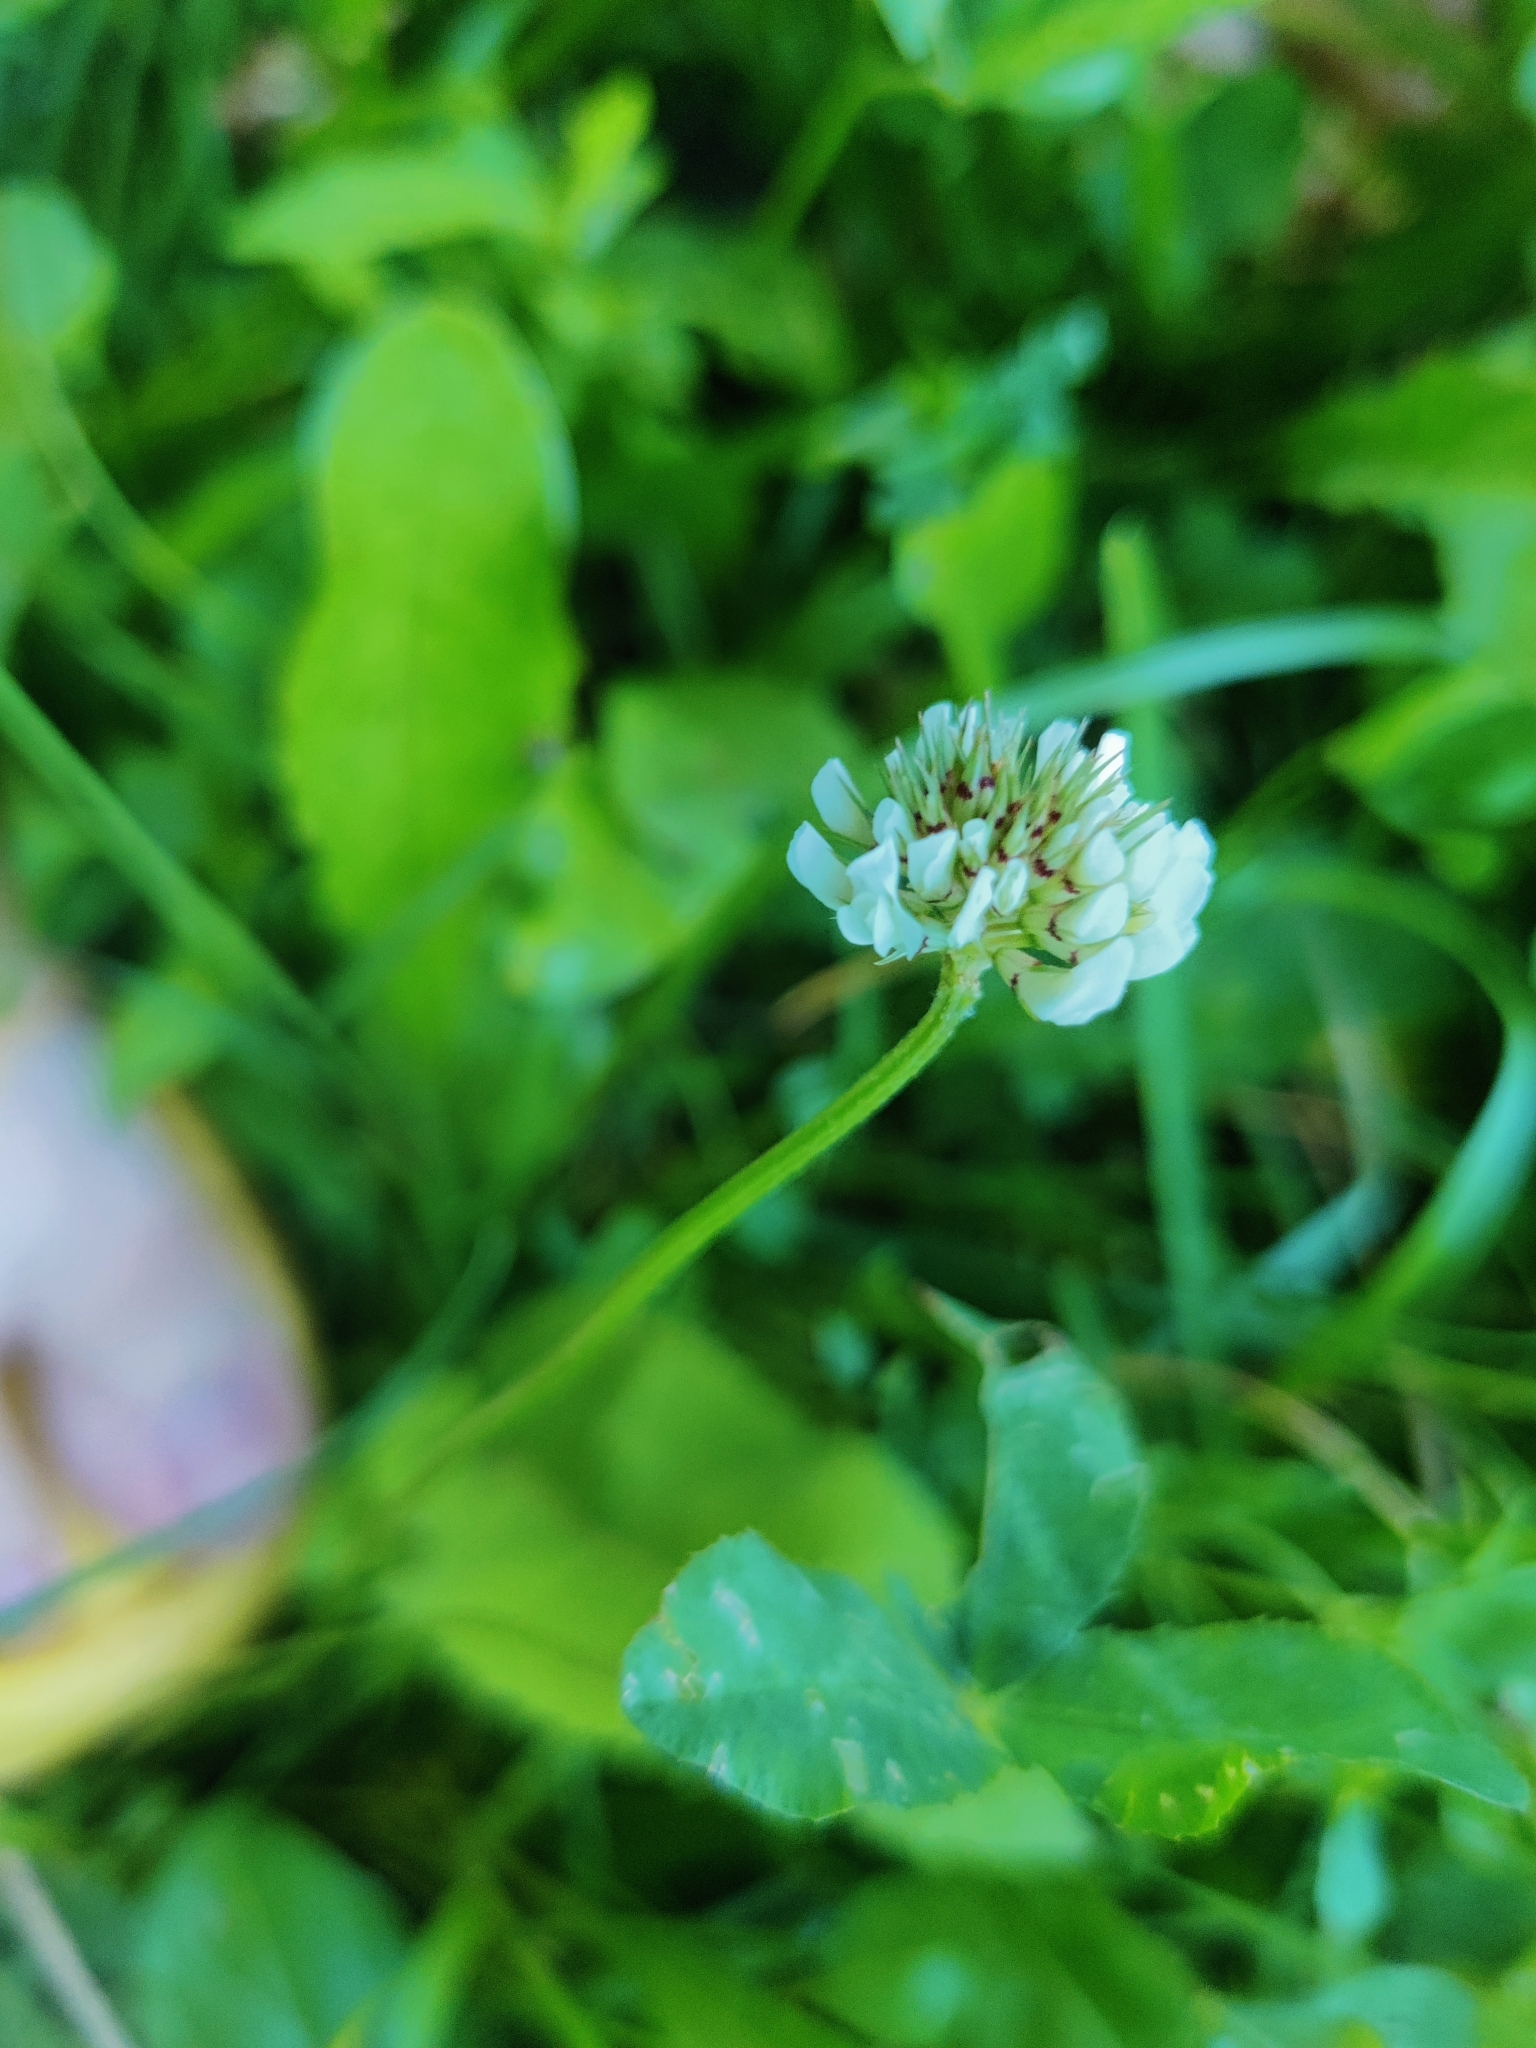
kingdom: Plantae
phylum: Tracheophyta
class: Magnoliopsida
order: Fabales
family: Fabaceae
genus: Trifolium
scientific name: Trifolium repens
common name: White clover
